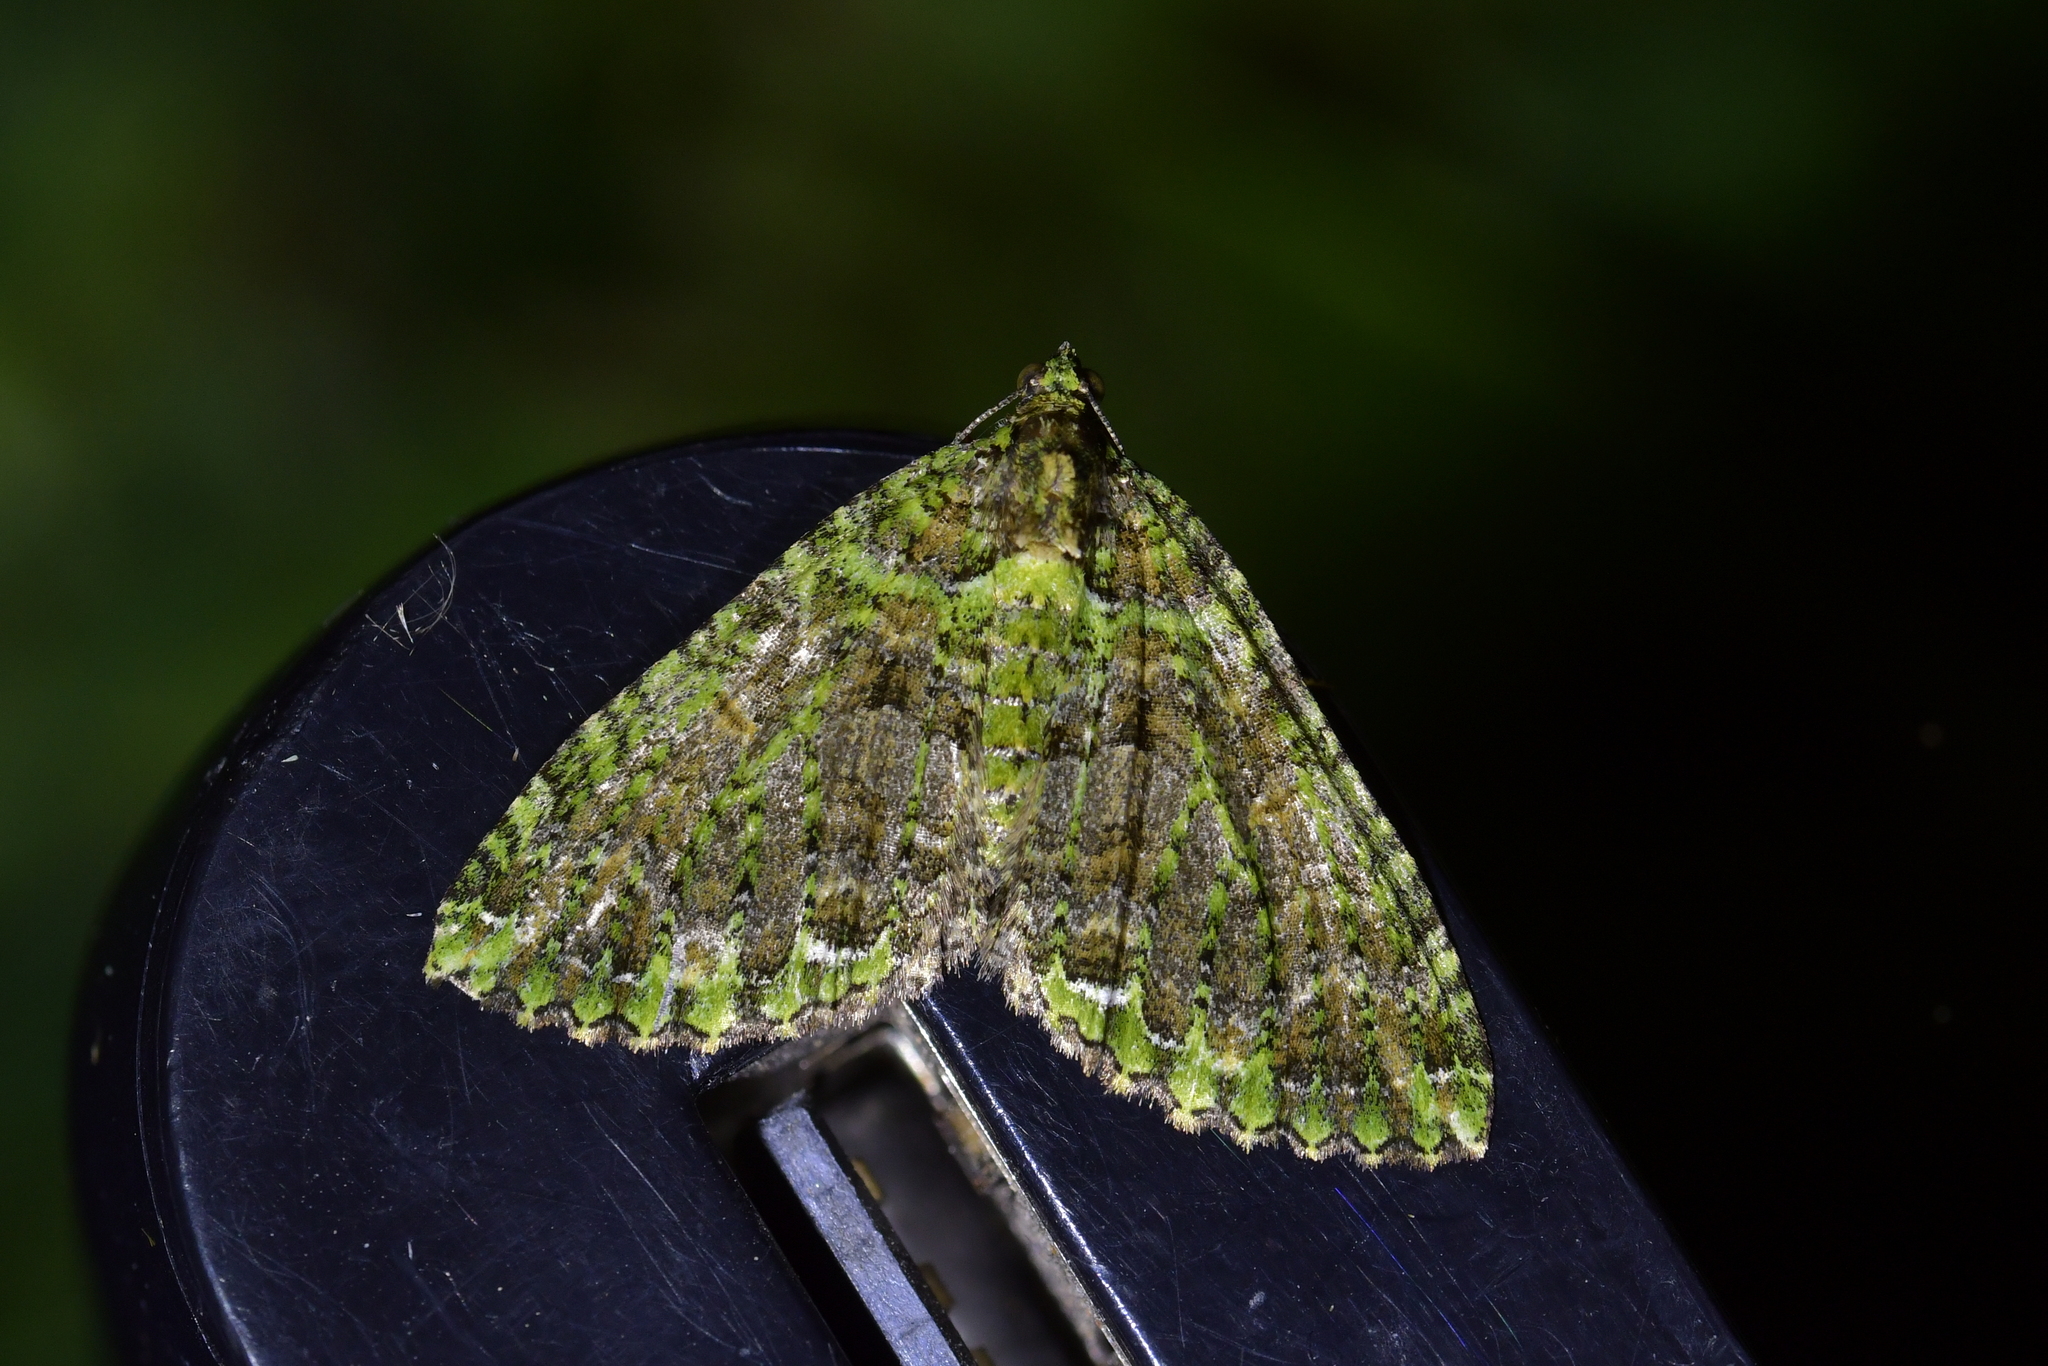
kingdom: Animalia
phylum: Arthropoda
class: Insecta
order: Lepidoptera
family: Geometridae
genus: Austrocidaria
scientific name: Austrocidaria similata
